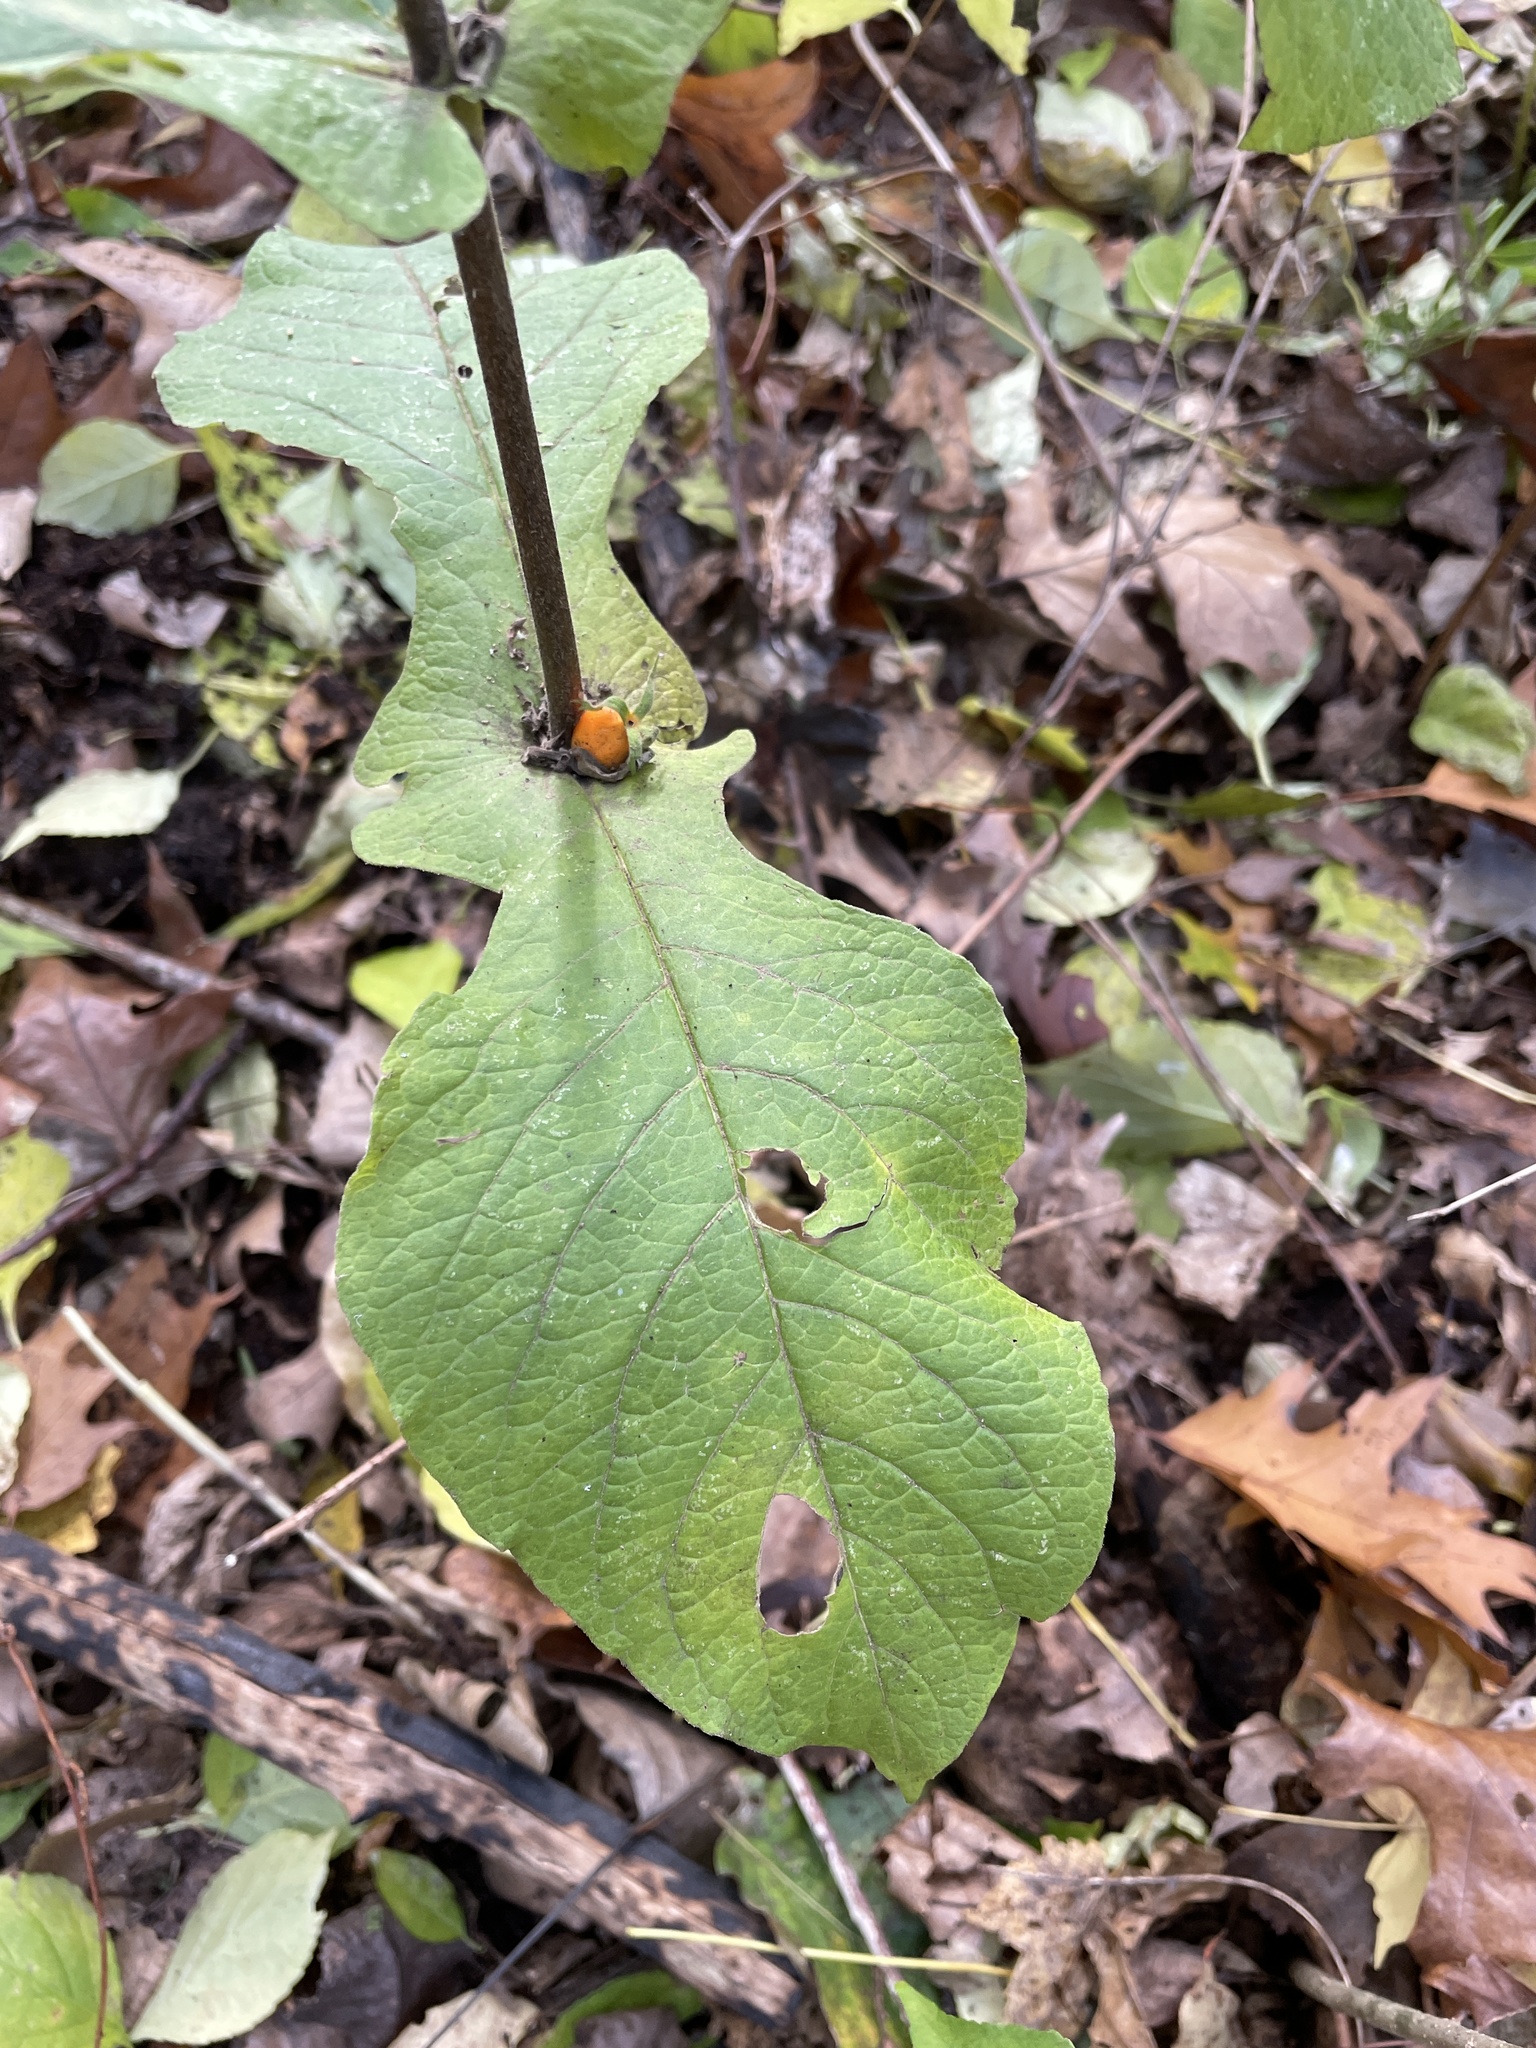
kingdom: Plantae
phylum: Tracheophyta
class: Magnoliopsida
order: Dipsacales
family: Caprifoliaceae
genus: Triosteum
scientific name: Triosteum aurantiacum
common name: Coffee tinker's-weed
